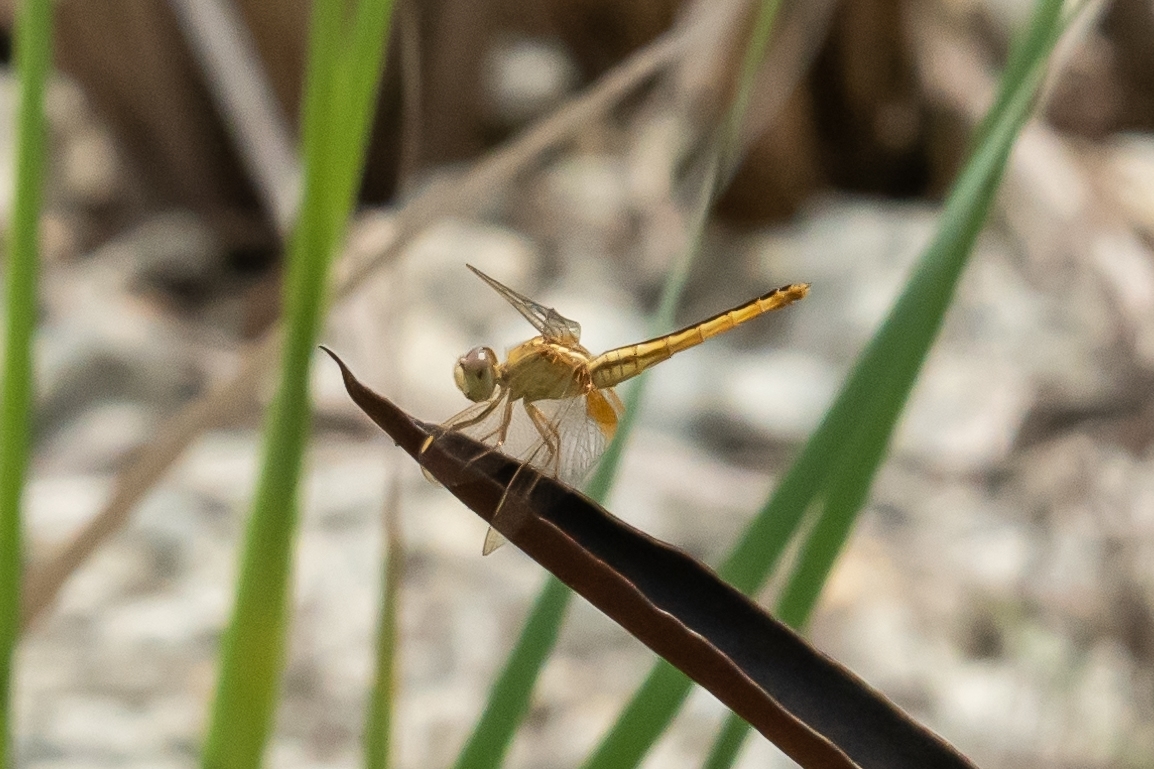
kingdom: Animalia
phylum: Arthropoda
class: Insecta
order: Odonata
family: Libellulidae
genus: Crocothemis
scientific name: Crocothemis servilia
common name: Scarlet skimmer
